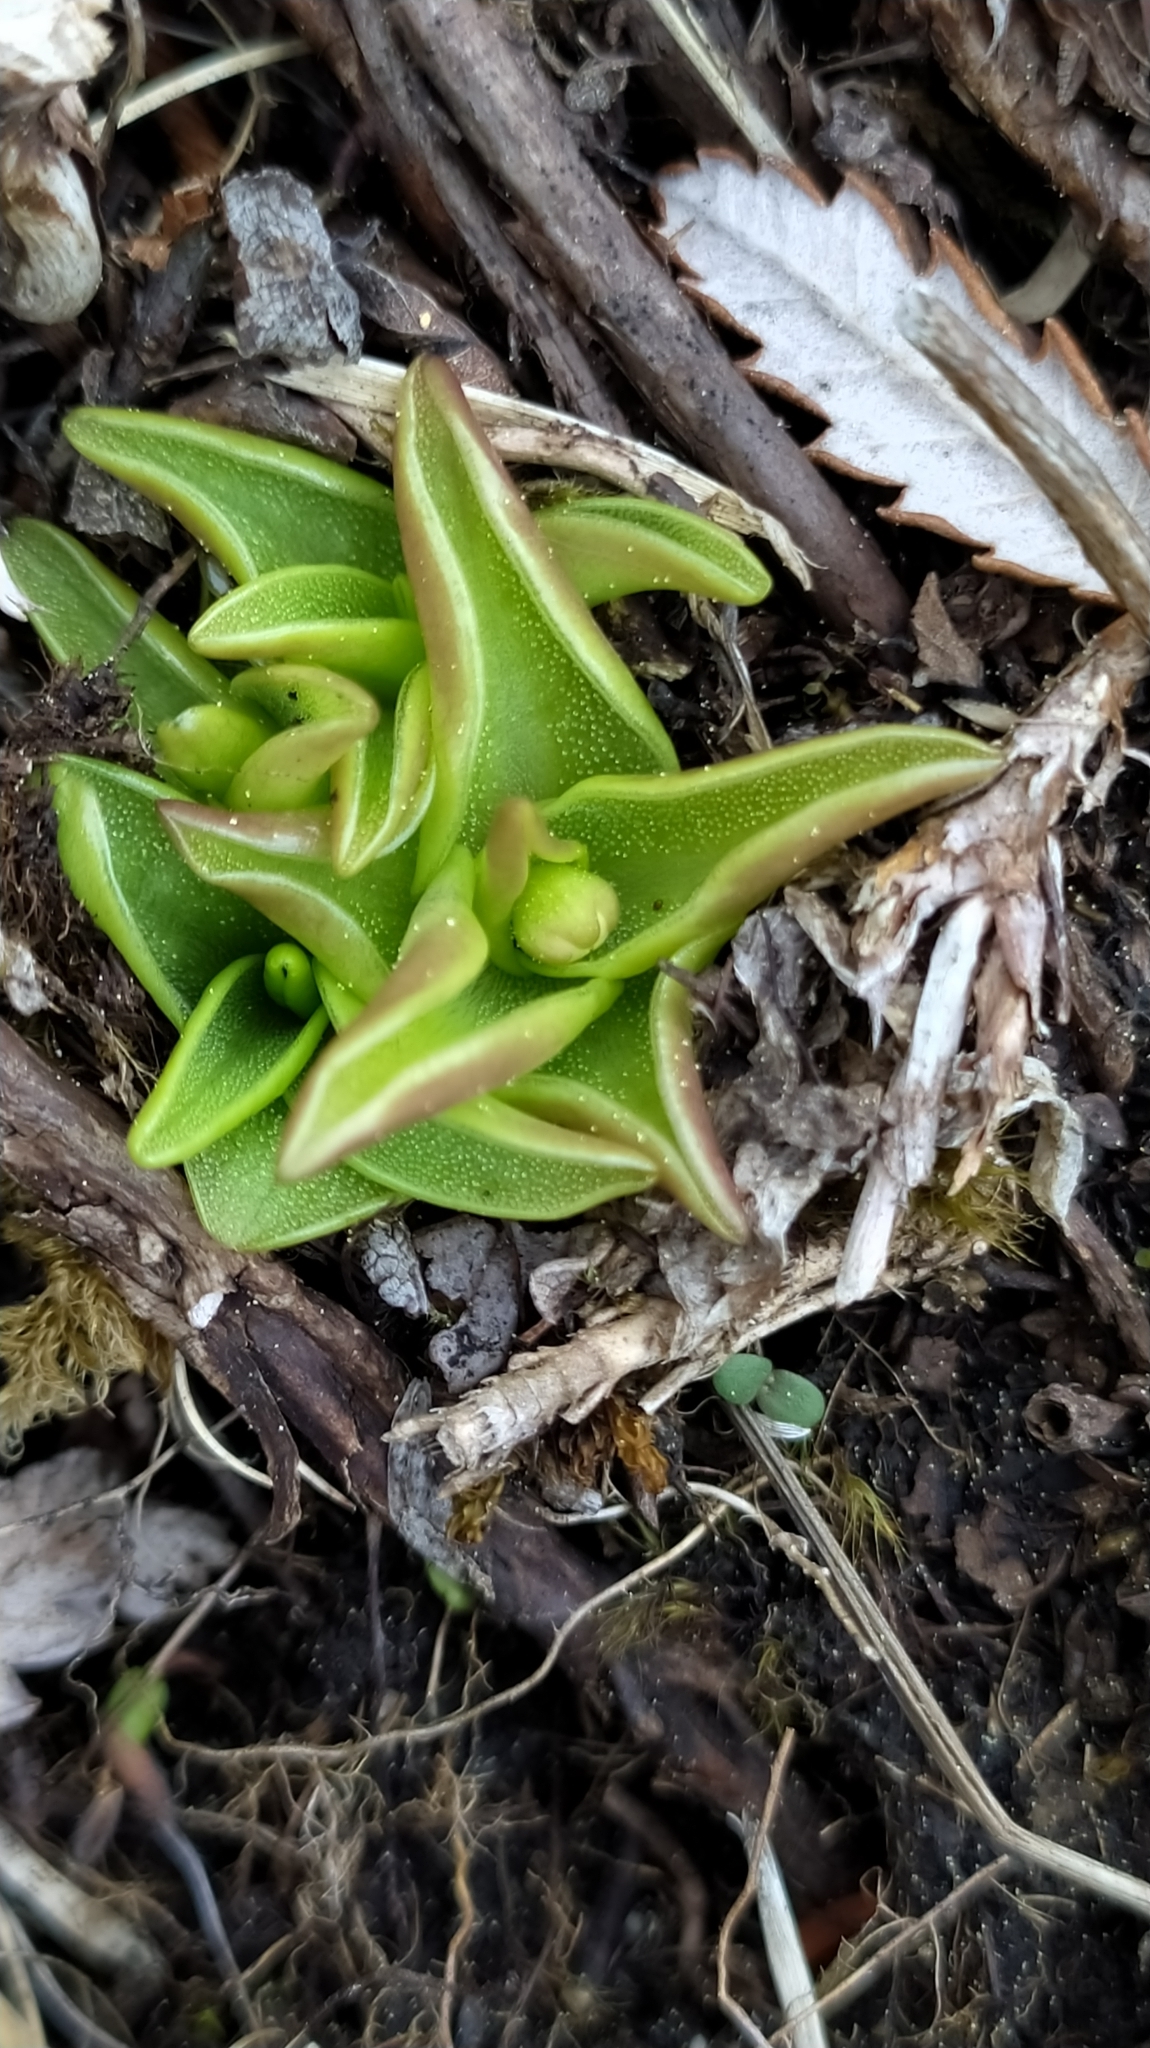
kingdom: Plantae
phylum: Tracheophyta
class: Magnoliopsida
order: Lamiales
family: Lentibulariaceae
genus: Pinguicula
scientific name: Pinguicula alpina
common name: Alpine butterwort
